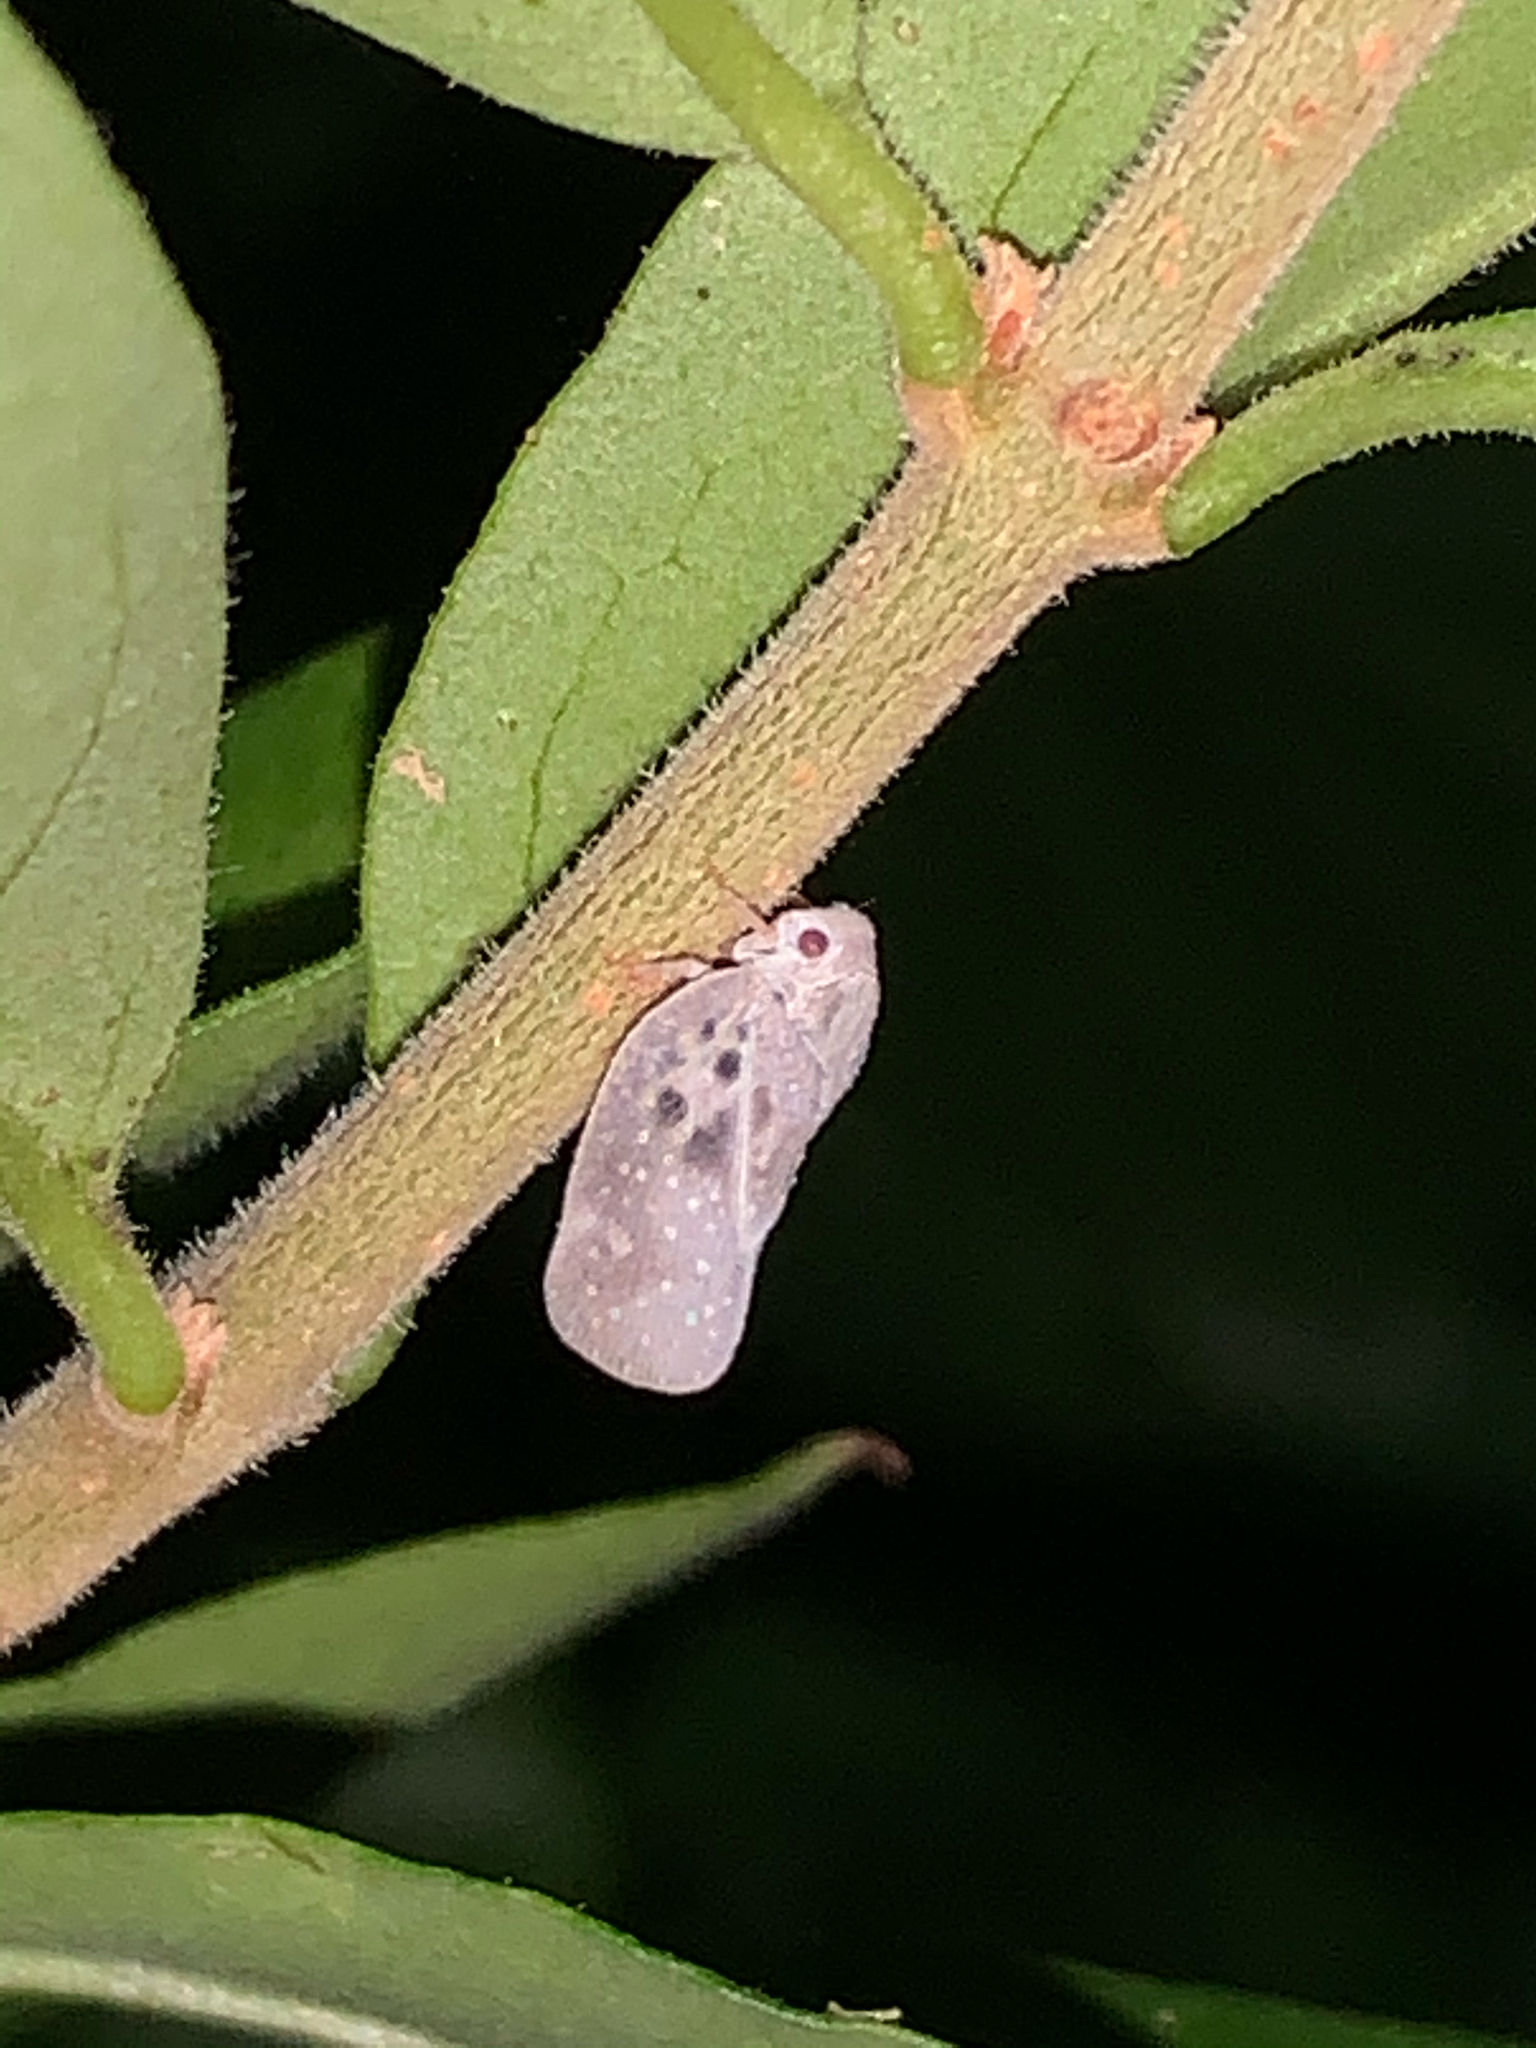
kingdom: Animalia
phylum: Arthropoda
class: Insecta
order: Hemiptera
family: Flatidae
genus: Metcalfa
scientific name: Metcalfa pruinosa
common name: Citrus flatid planthopper
